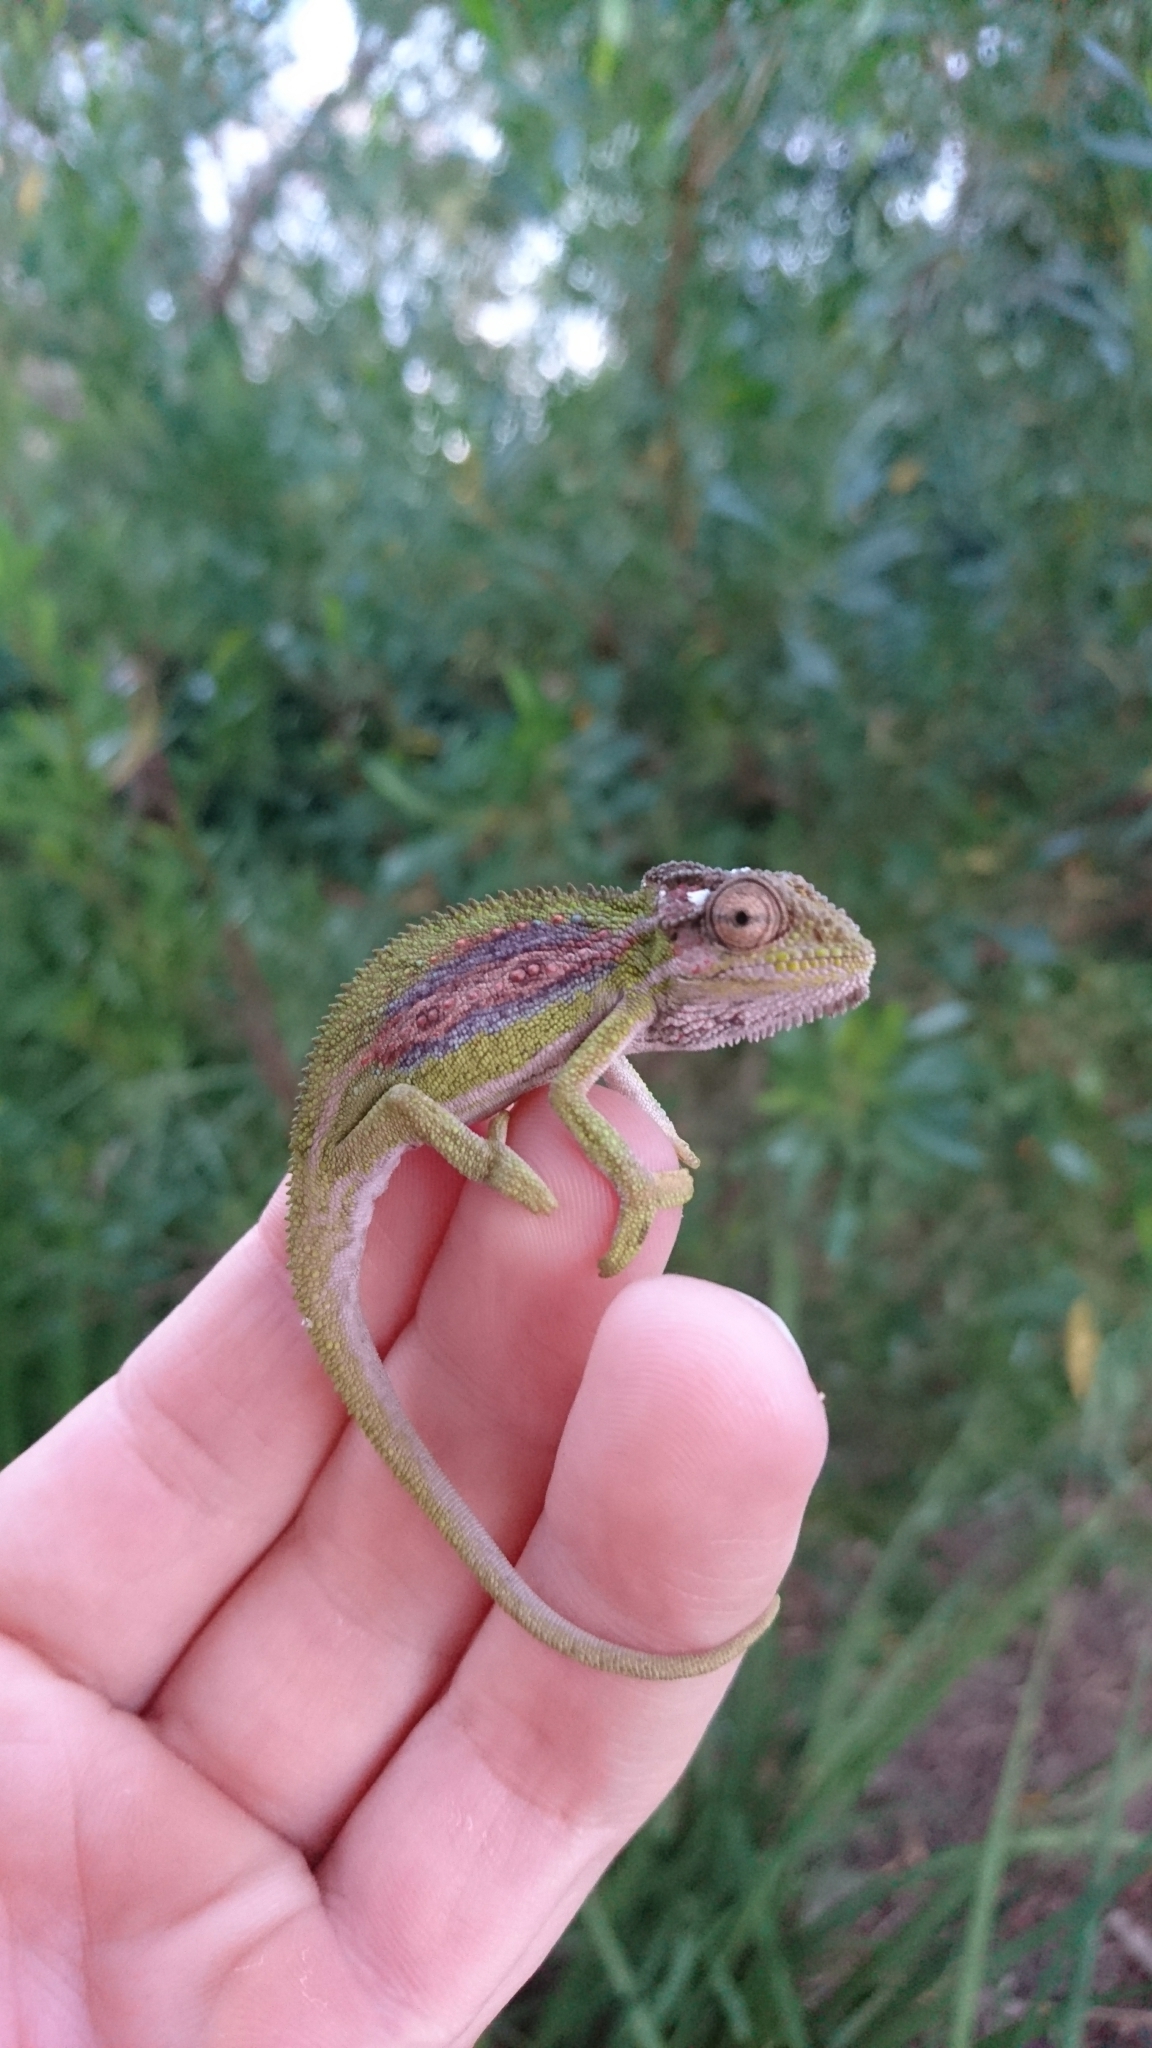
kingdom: Animalia
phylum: Chordata
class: Squamata
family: Chamaeleonidae
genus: Bradypodion
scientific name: Bradypodion pumilum
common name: Cape dwarf chameleon
